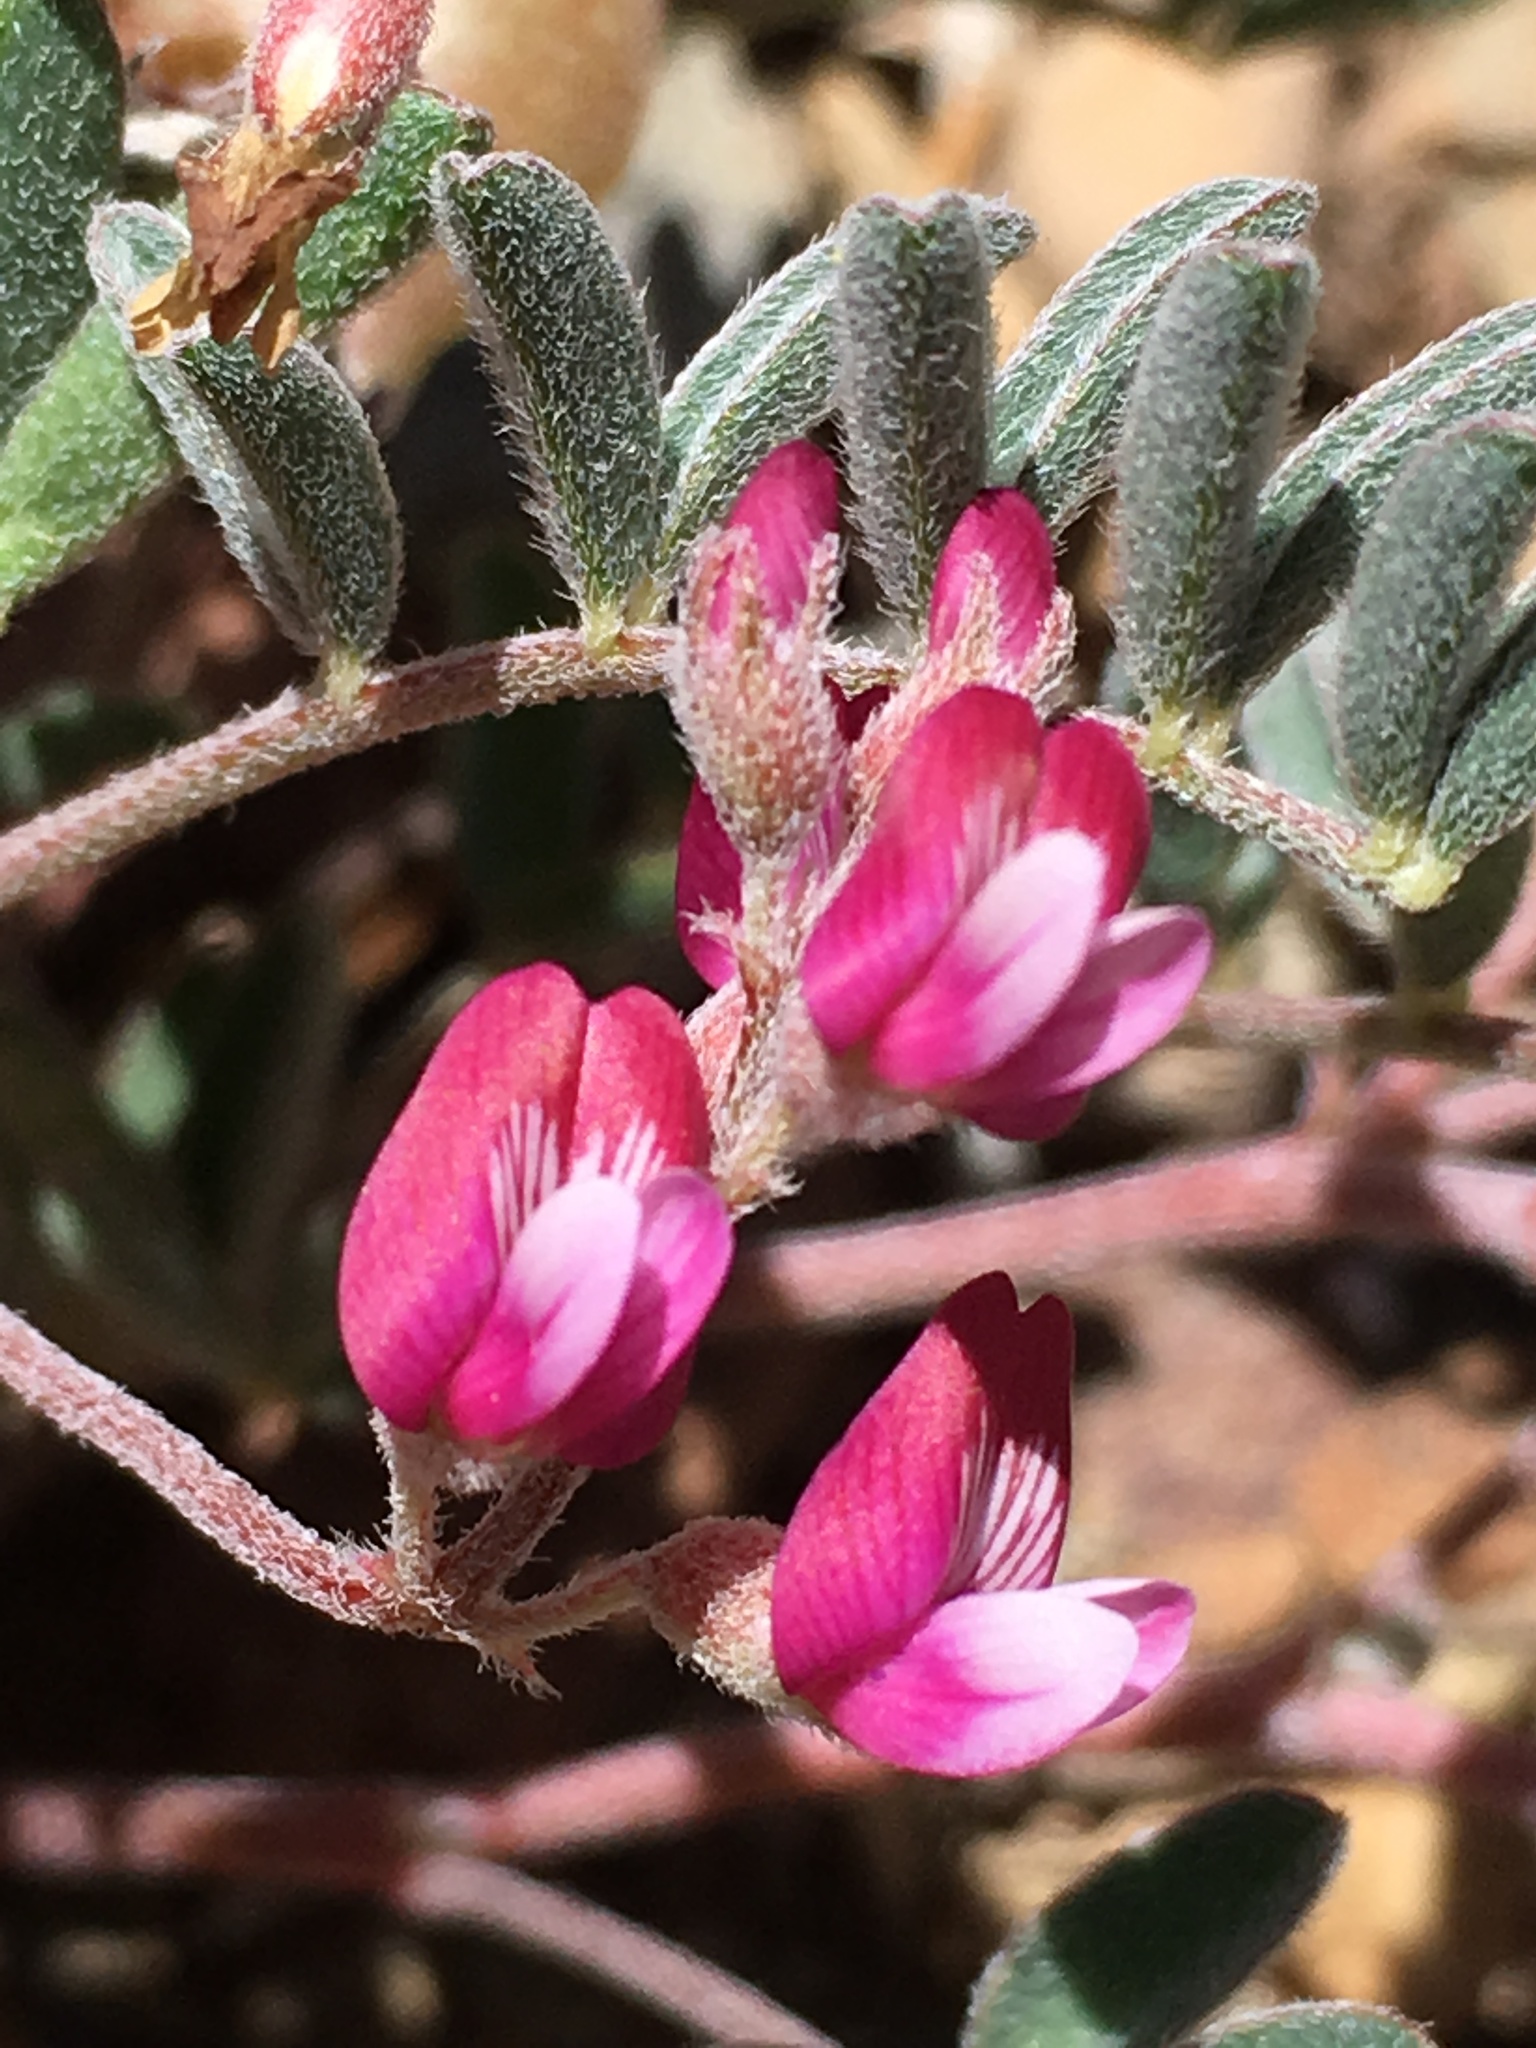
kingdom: Plantae
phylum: Tracheophyta
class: Magnoliopsida
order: Fabales
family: Fabaceae
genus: Astragalus
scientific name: Astragalus gilmanii
